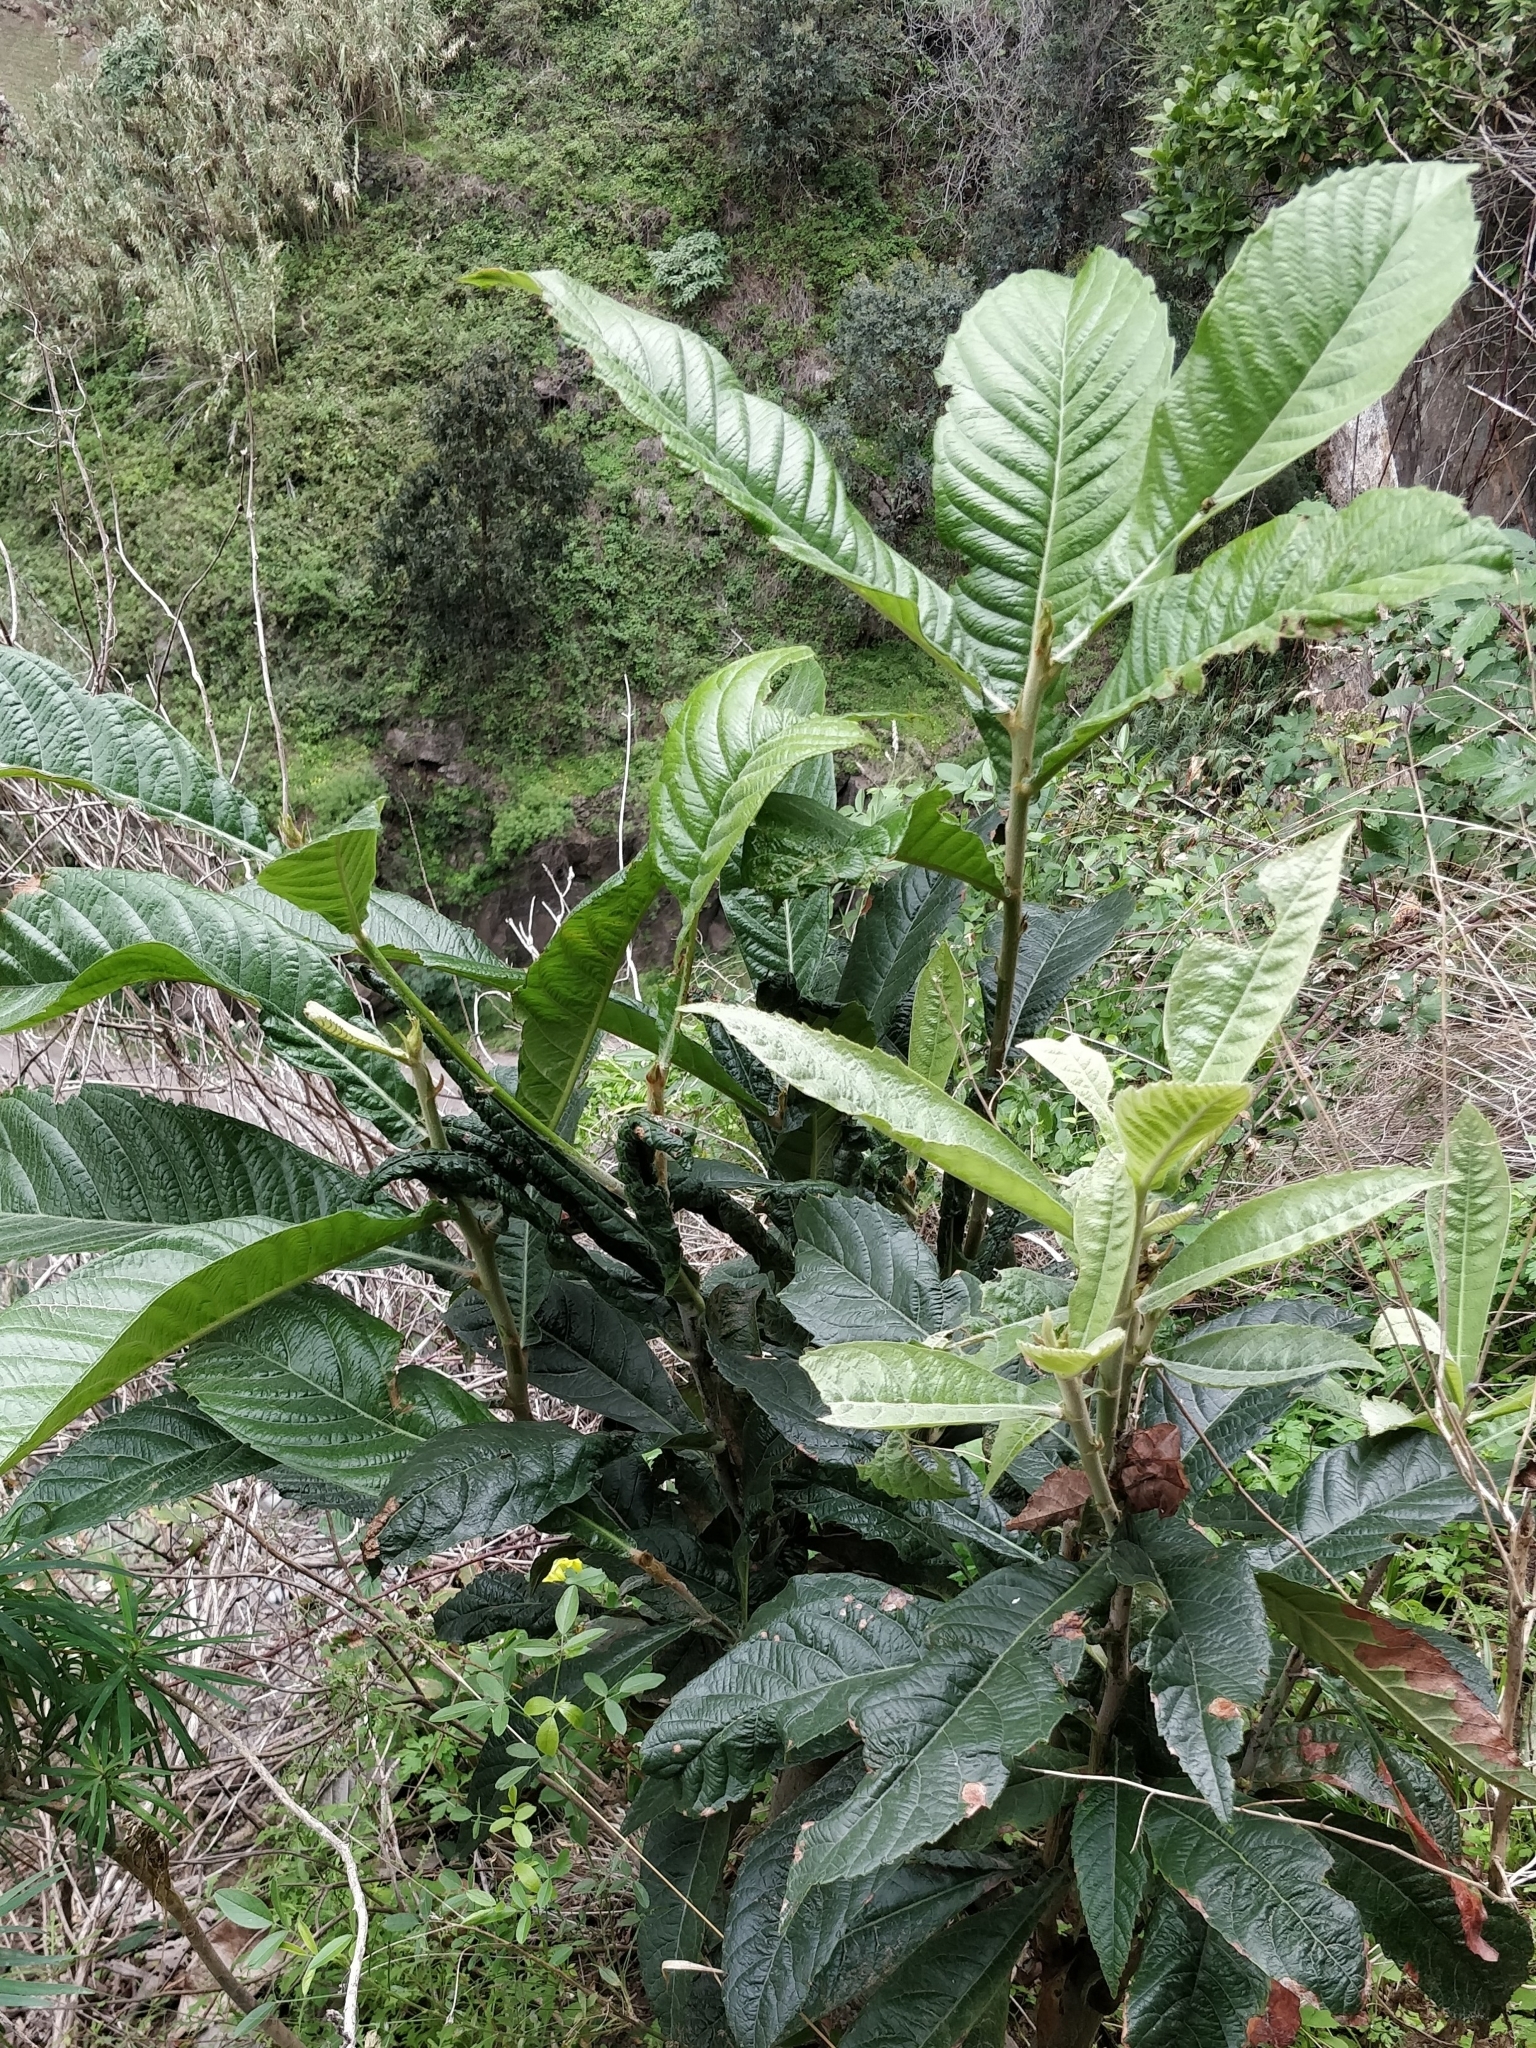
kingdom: Plantae
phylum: Tracheophyta
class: Magnoliopsida
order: Rosales
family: Rosaceae
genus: Rhaphiolepis
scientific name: Rhaphiolepis bibas
